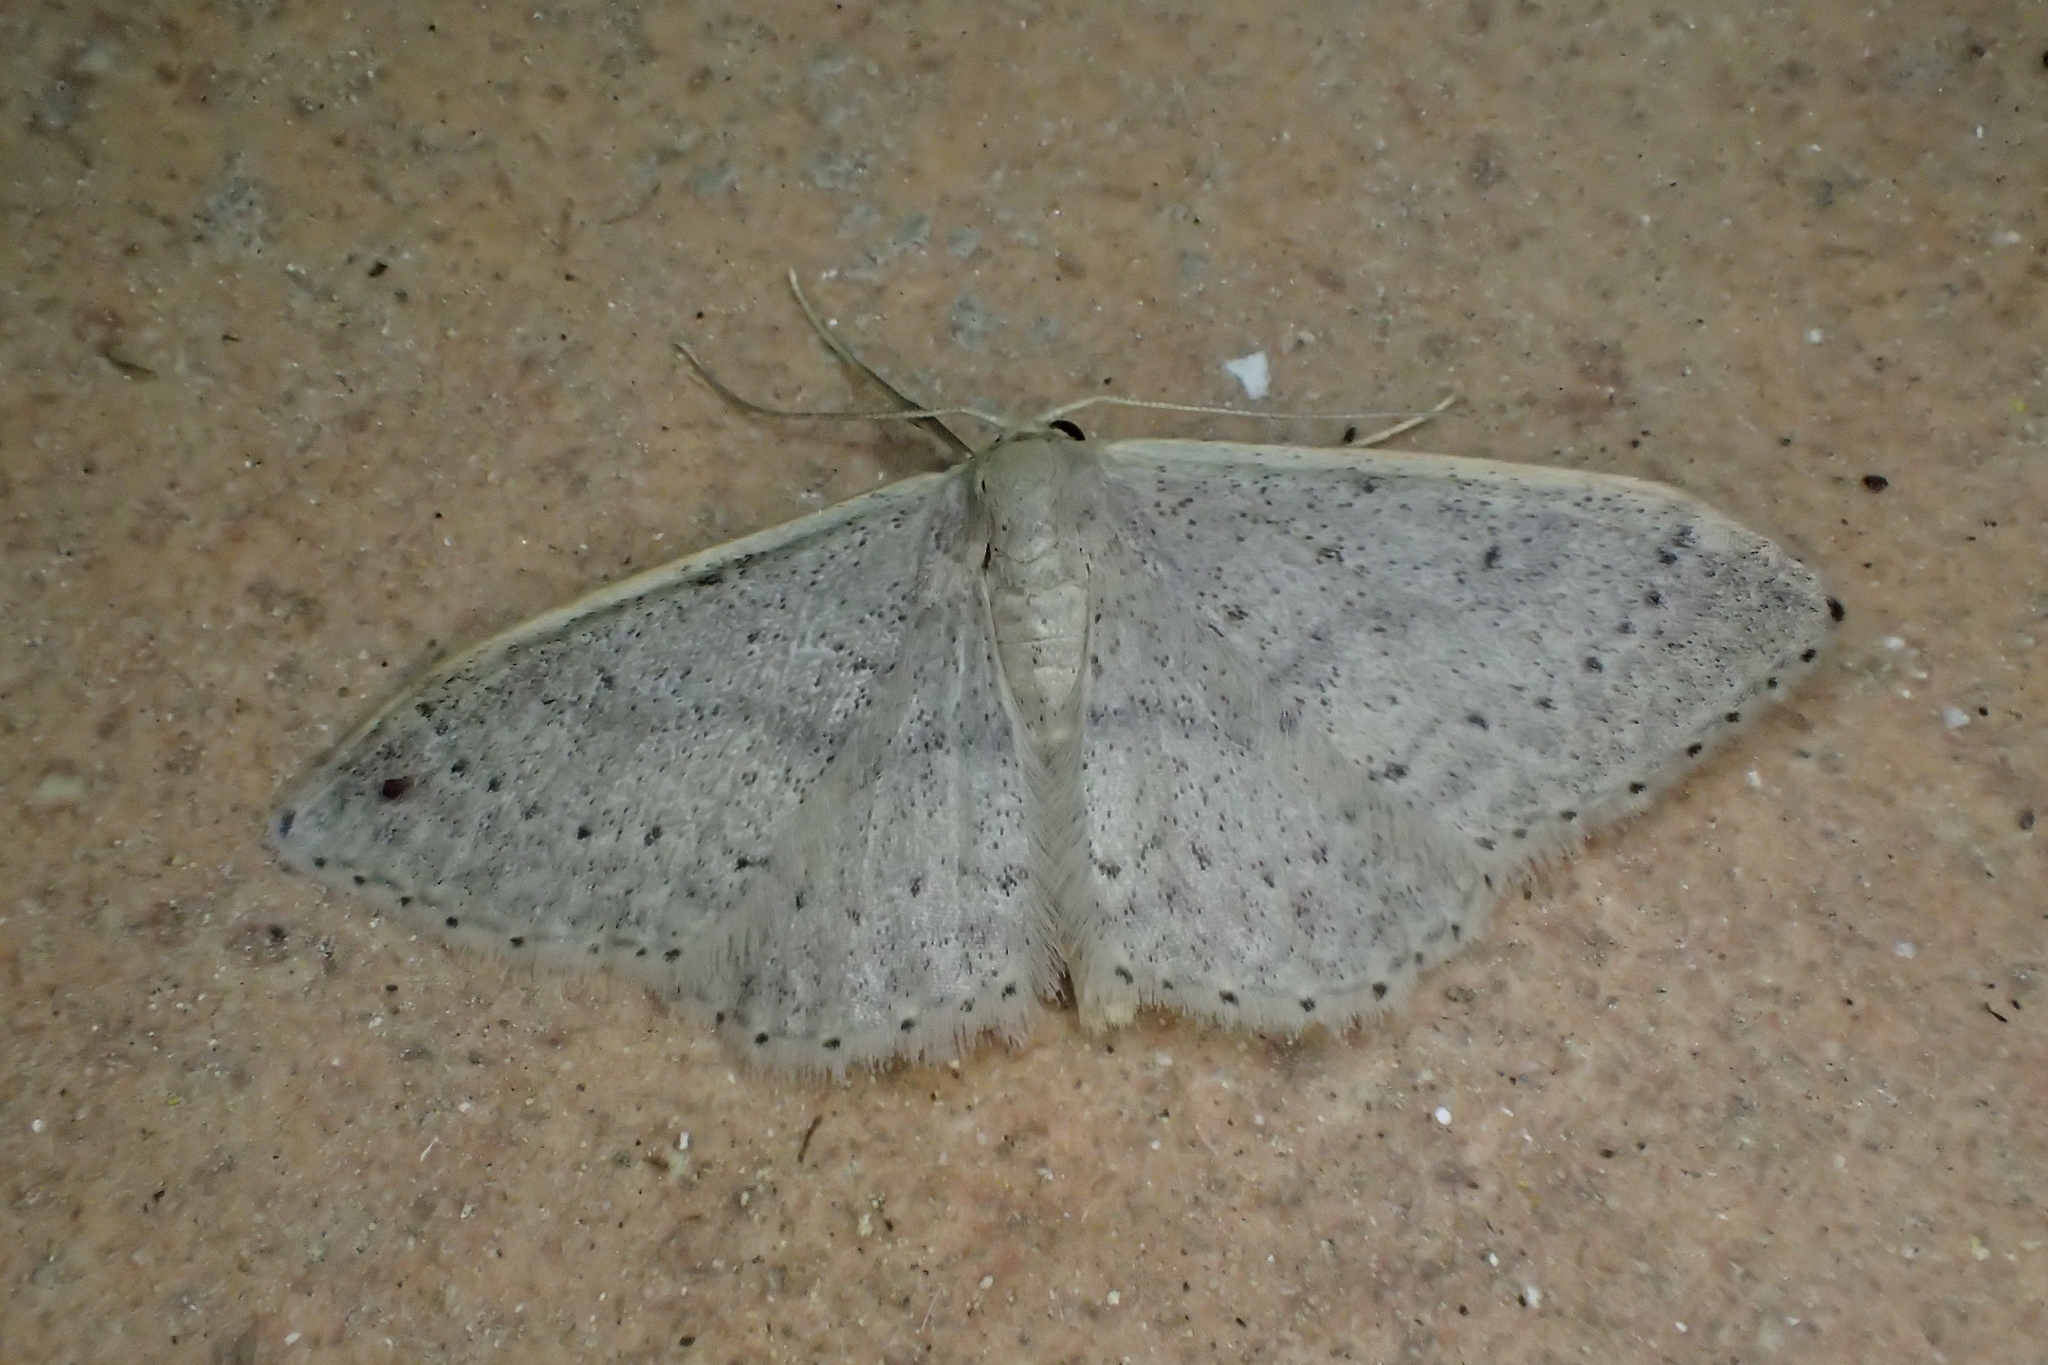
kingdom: Animalia
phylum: Arthropoda
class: Insecta
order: Lepidoptera
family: Geometridae
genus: Idaea
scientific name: Idaea eugeniata
